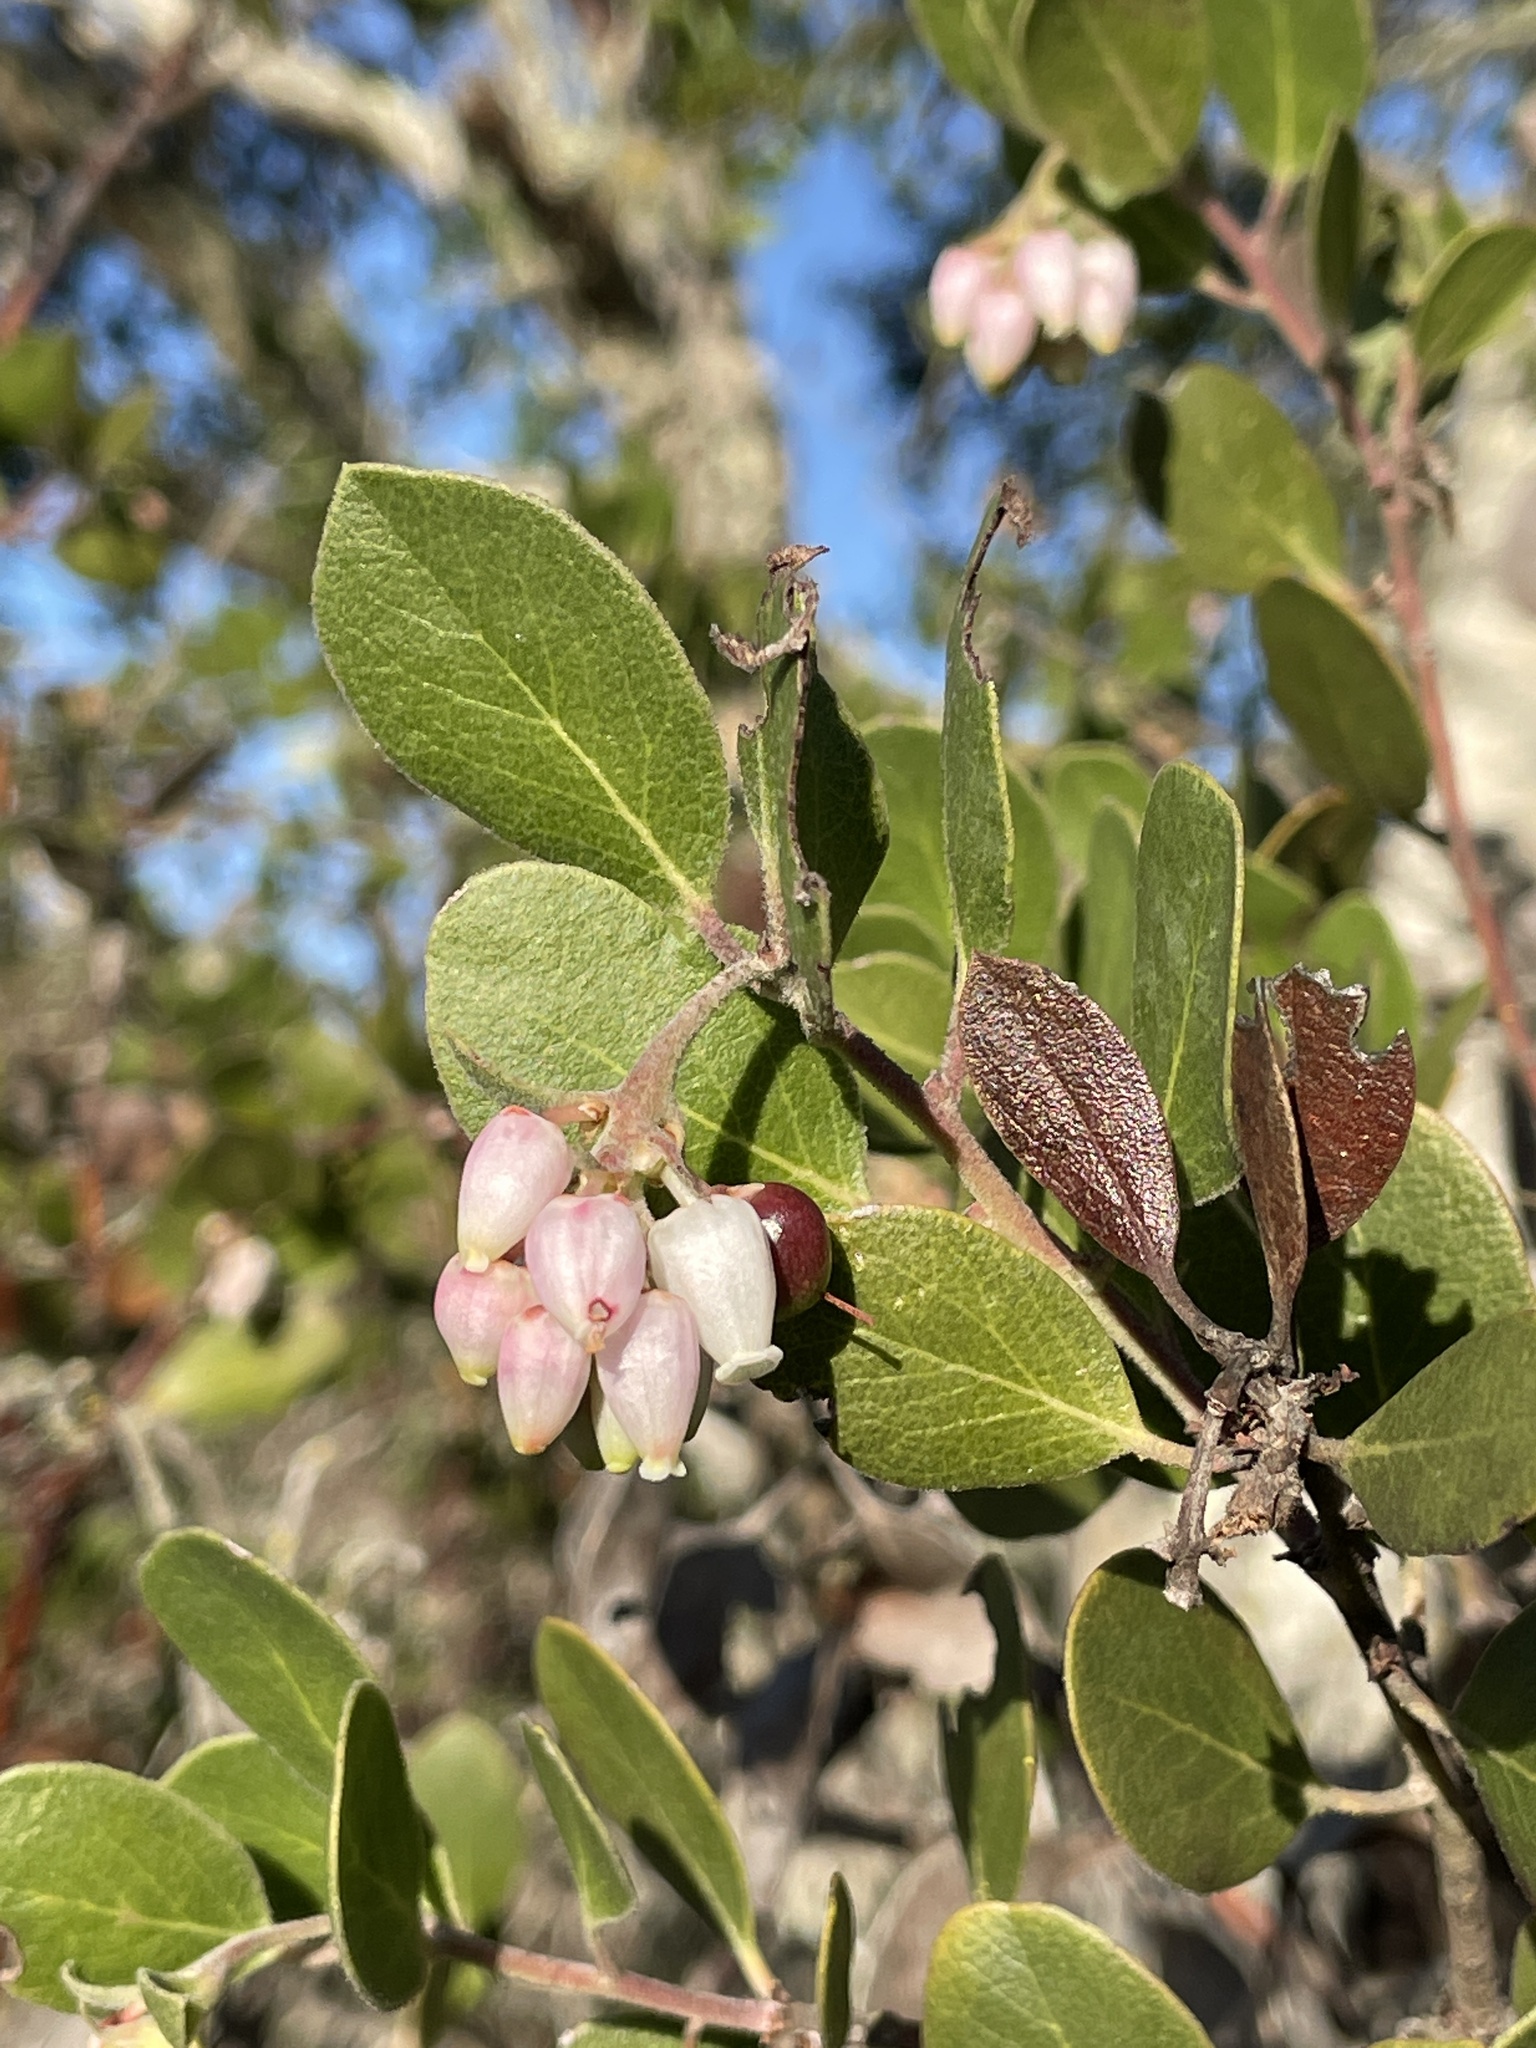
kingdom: Plantae
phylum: Tracheophyta
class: Magnoliopsida
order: Ericales
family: Ericaceae
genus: Arctostaphylos
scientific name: Arctostaphylos rudis
